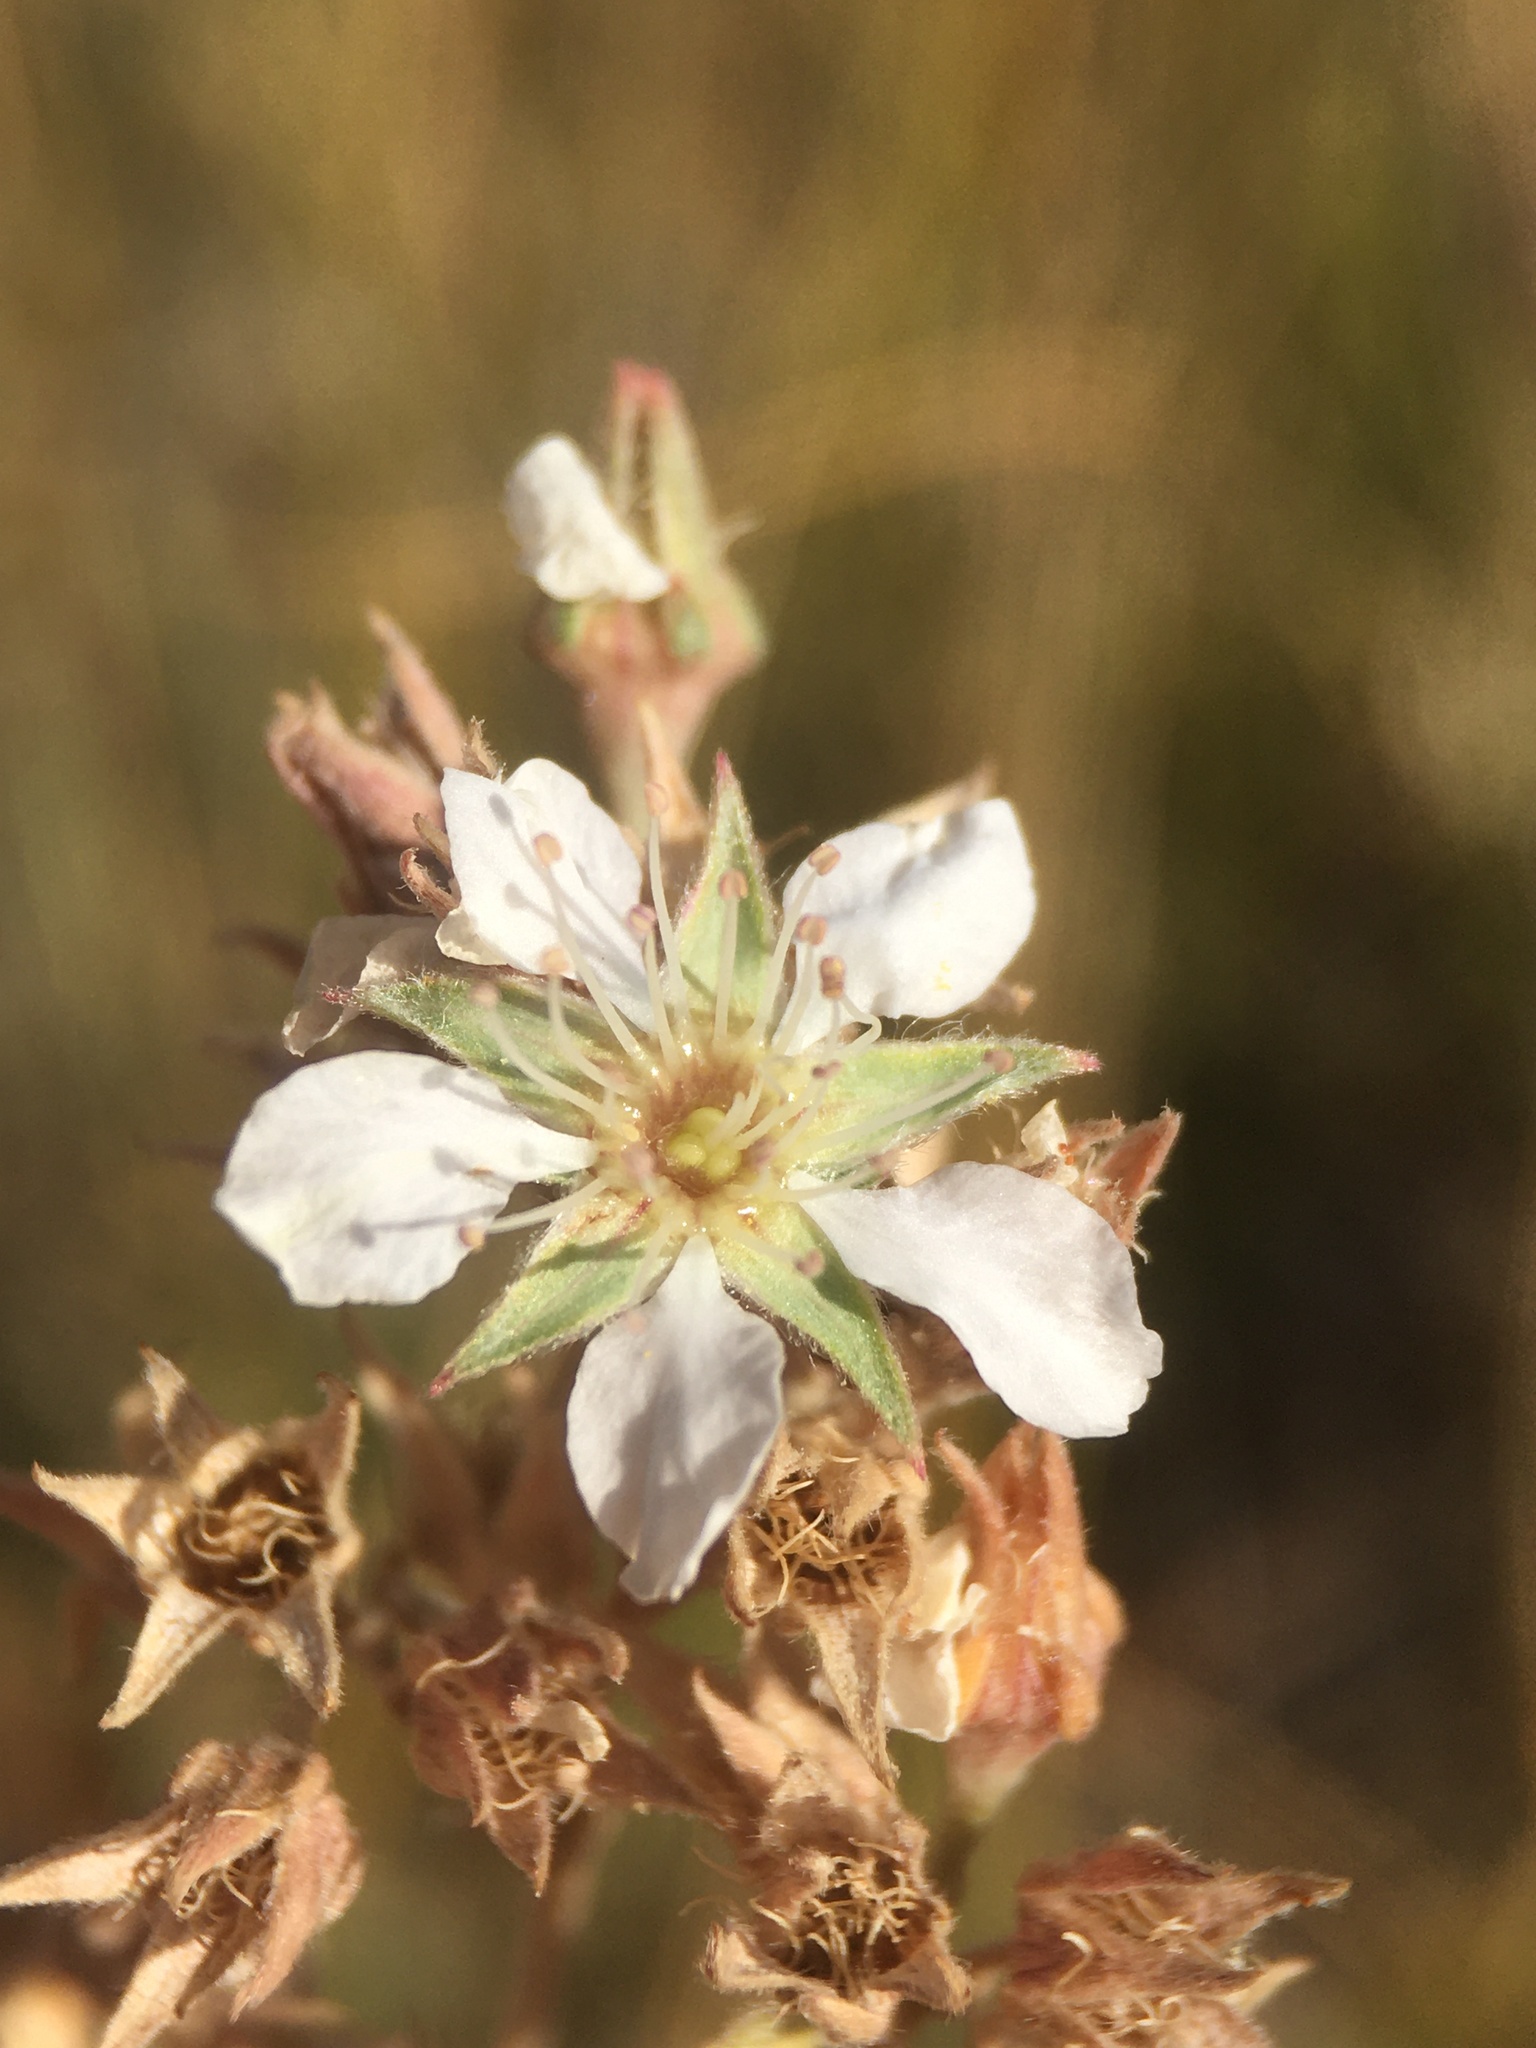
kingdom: Plantae
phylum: Tracheophyta
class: Magnoliopsida
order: Rosales
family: Rosaceae
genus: Potentilla
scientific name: Potentilla kingii
